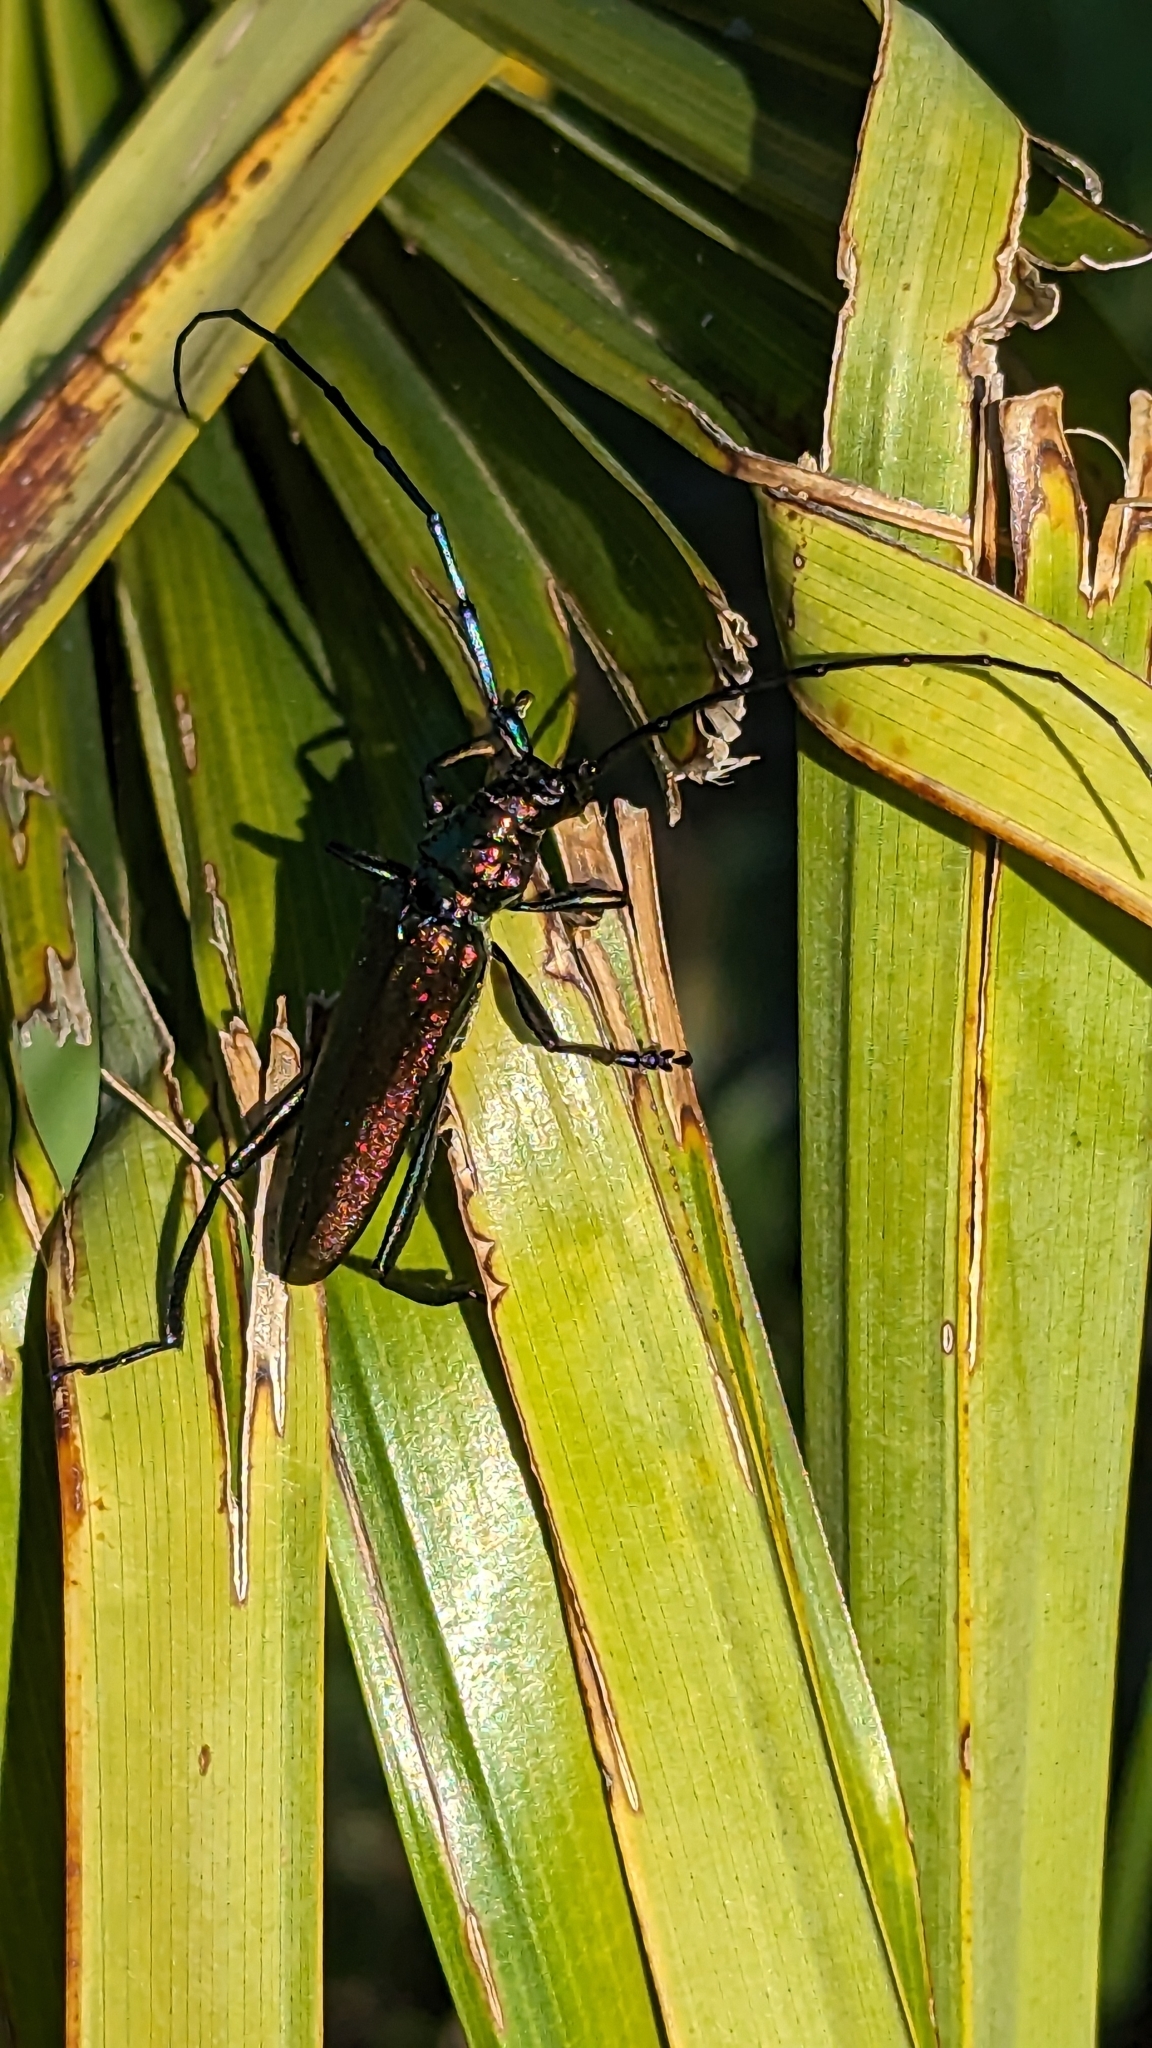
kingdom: Animalia
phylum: Arthropoda
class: Insecta
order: Coleoptera
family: Cerambycidae
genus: Aromia
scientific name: Aromia moschata
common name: Musk beetle
